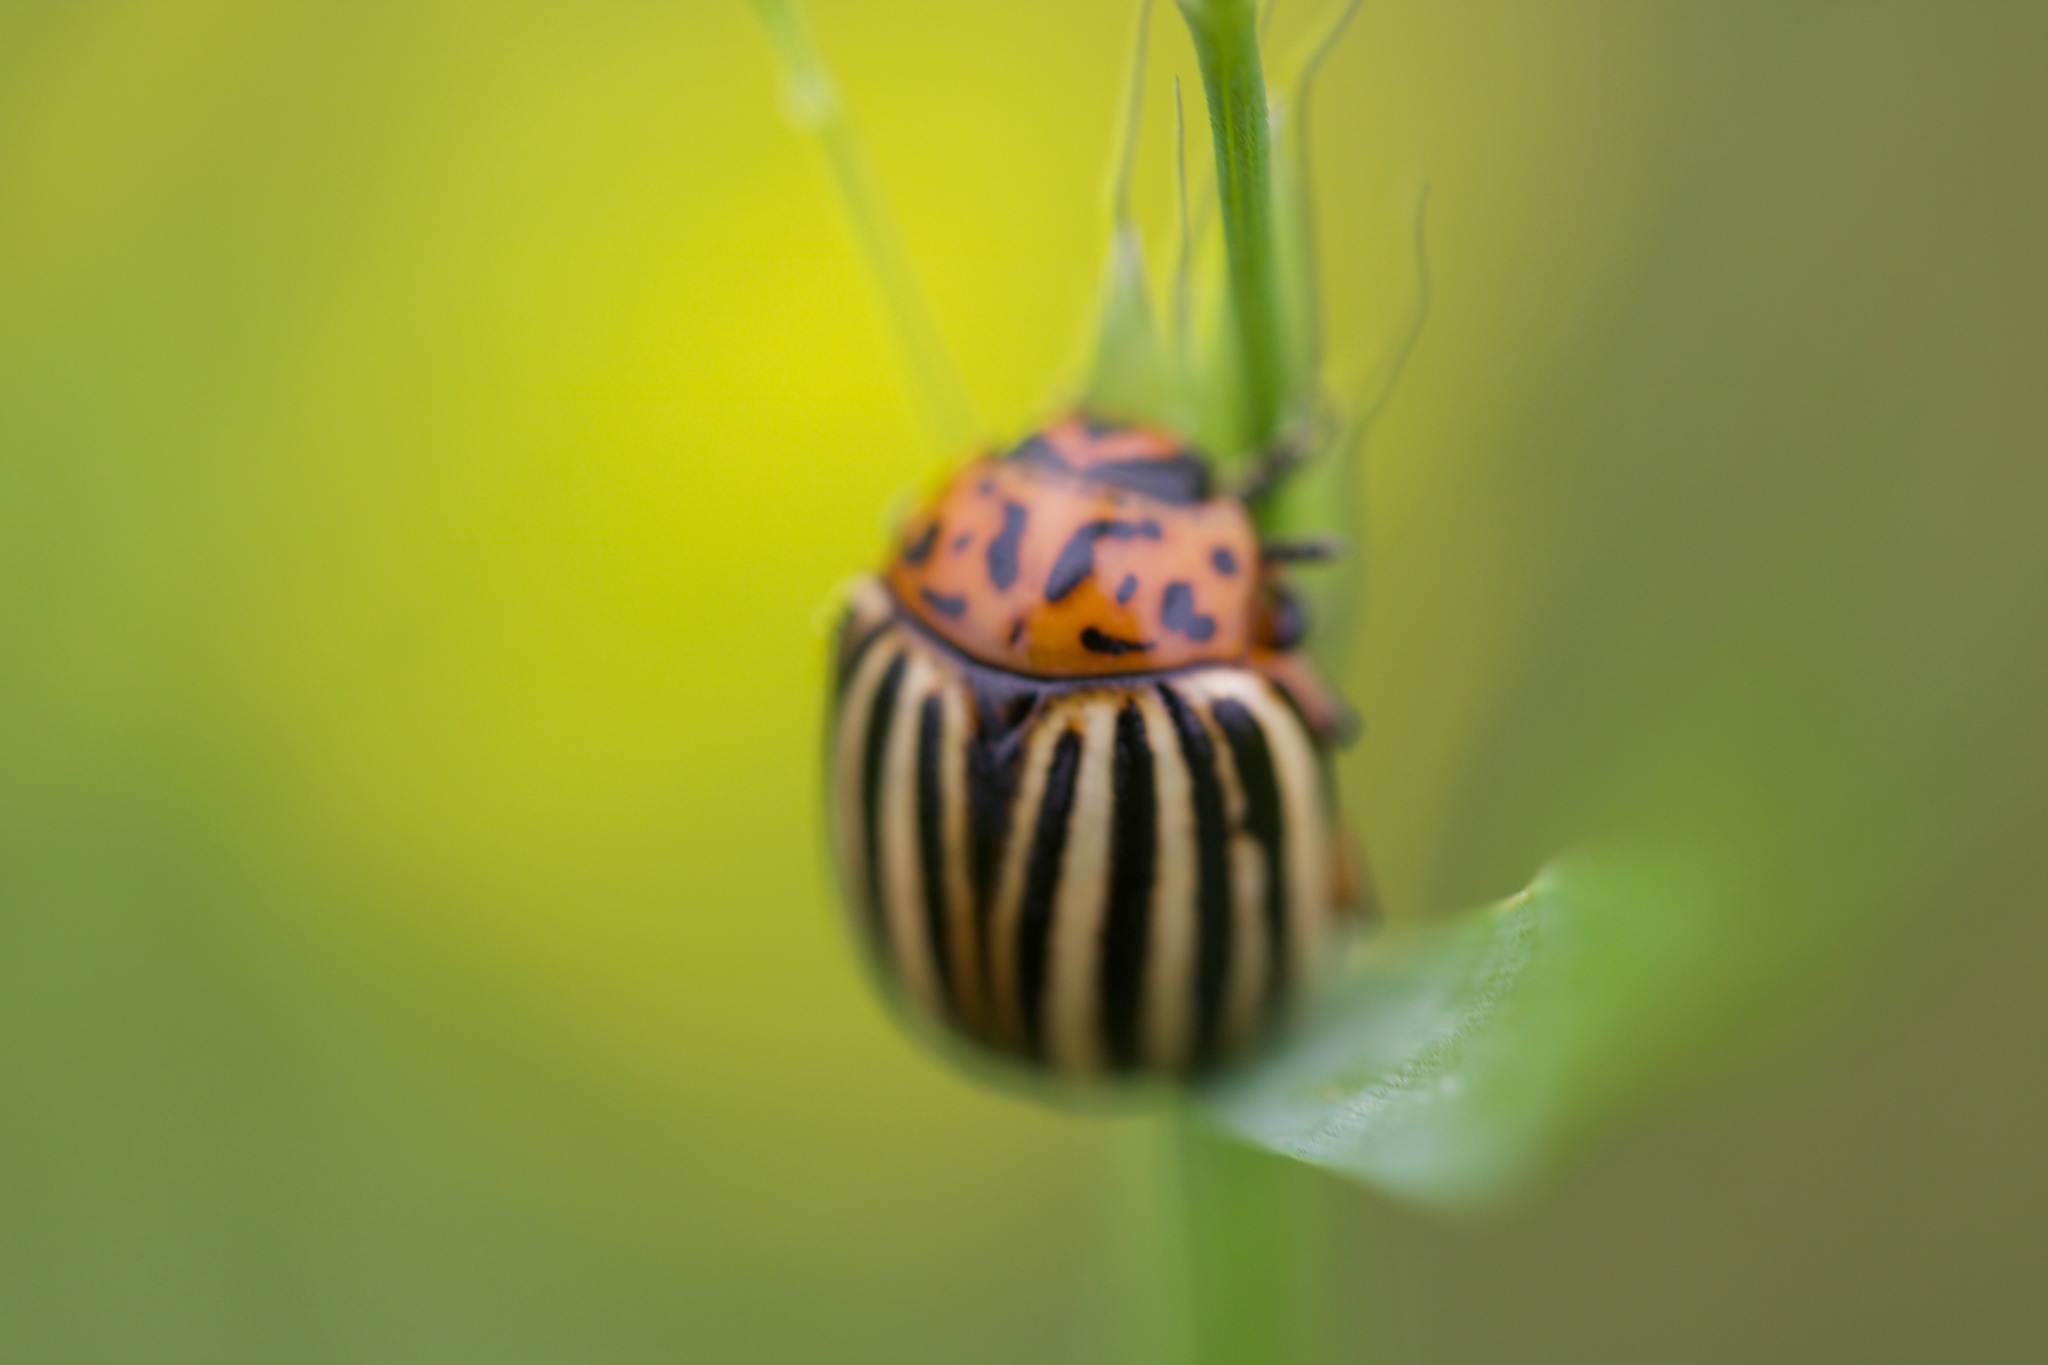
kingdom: Animalia
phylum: Arthropoda
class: Insecta
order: Coleoptera
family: Chrysomelidae
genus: Leptinotarsa
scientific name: Leptinotarsa decemlineata
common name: Colorado potato beetle
